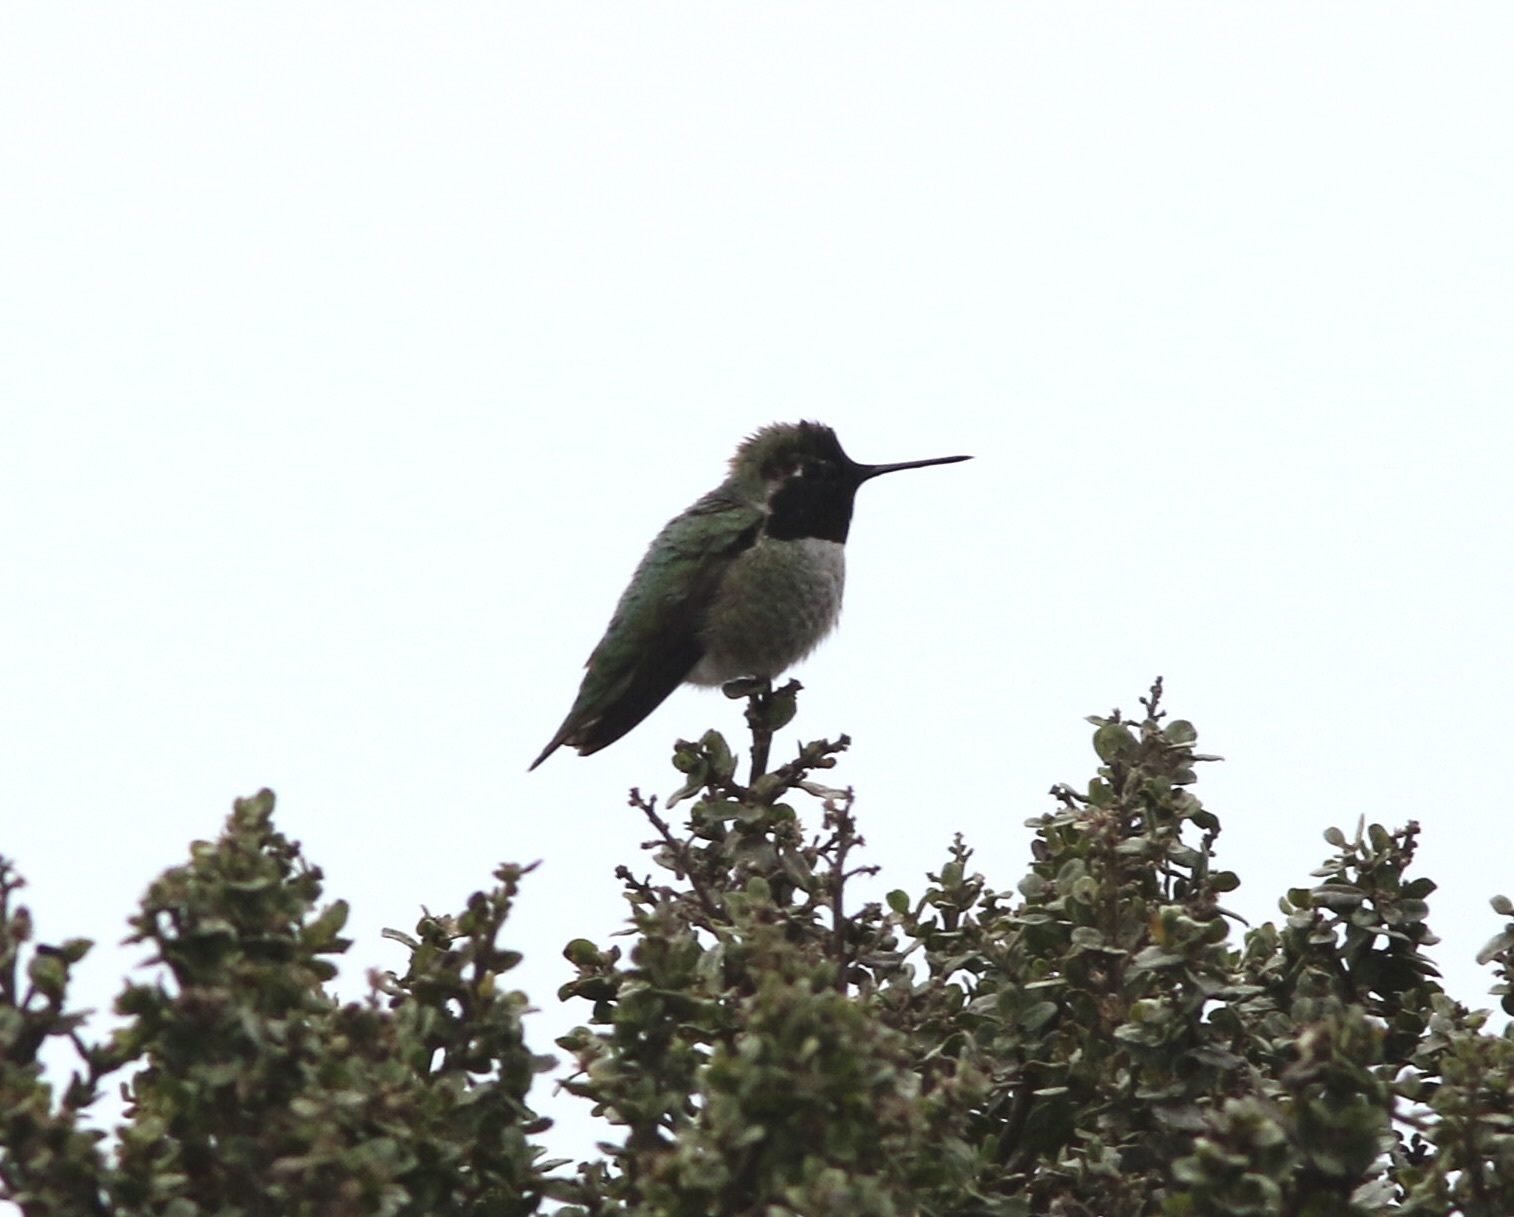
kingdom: Animalia
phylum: Chordata
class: Aves
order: Apodiformes
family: Trochilidae
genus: Calypte
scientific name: Calypte anna
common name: Anna's hummingbird
